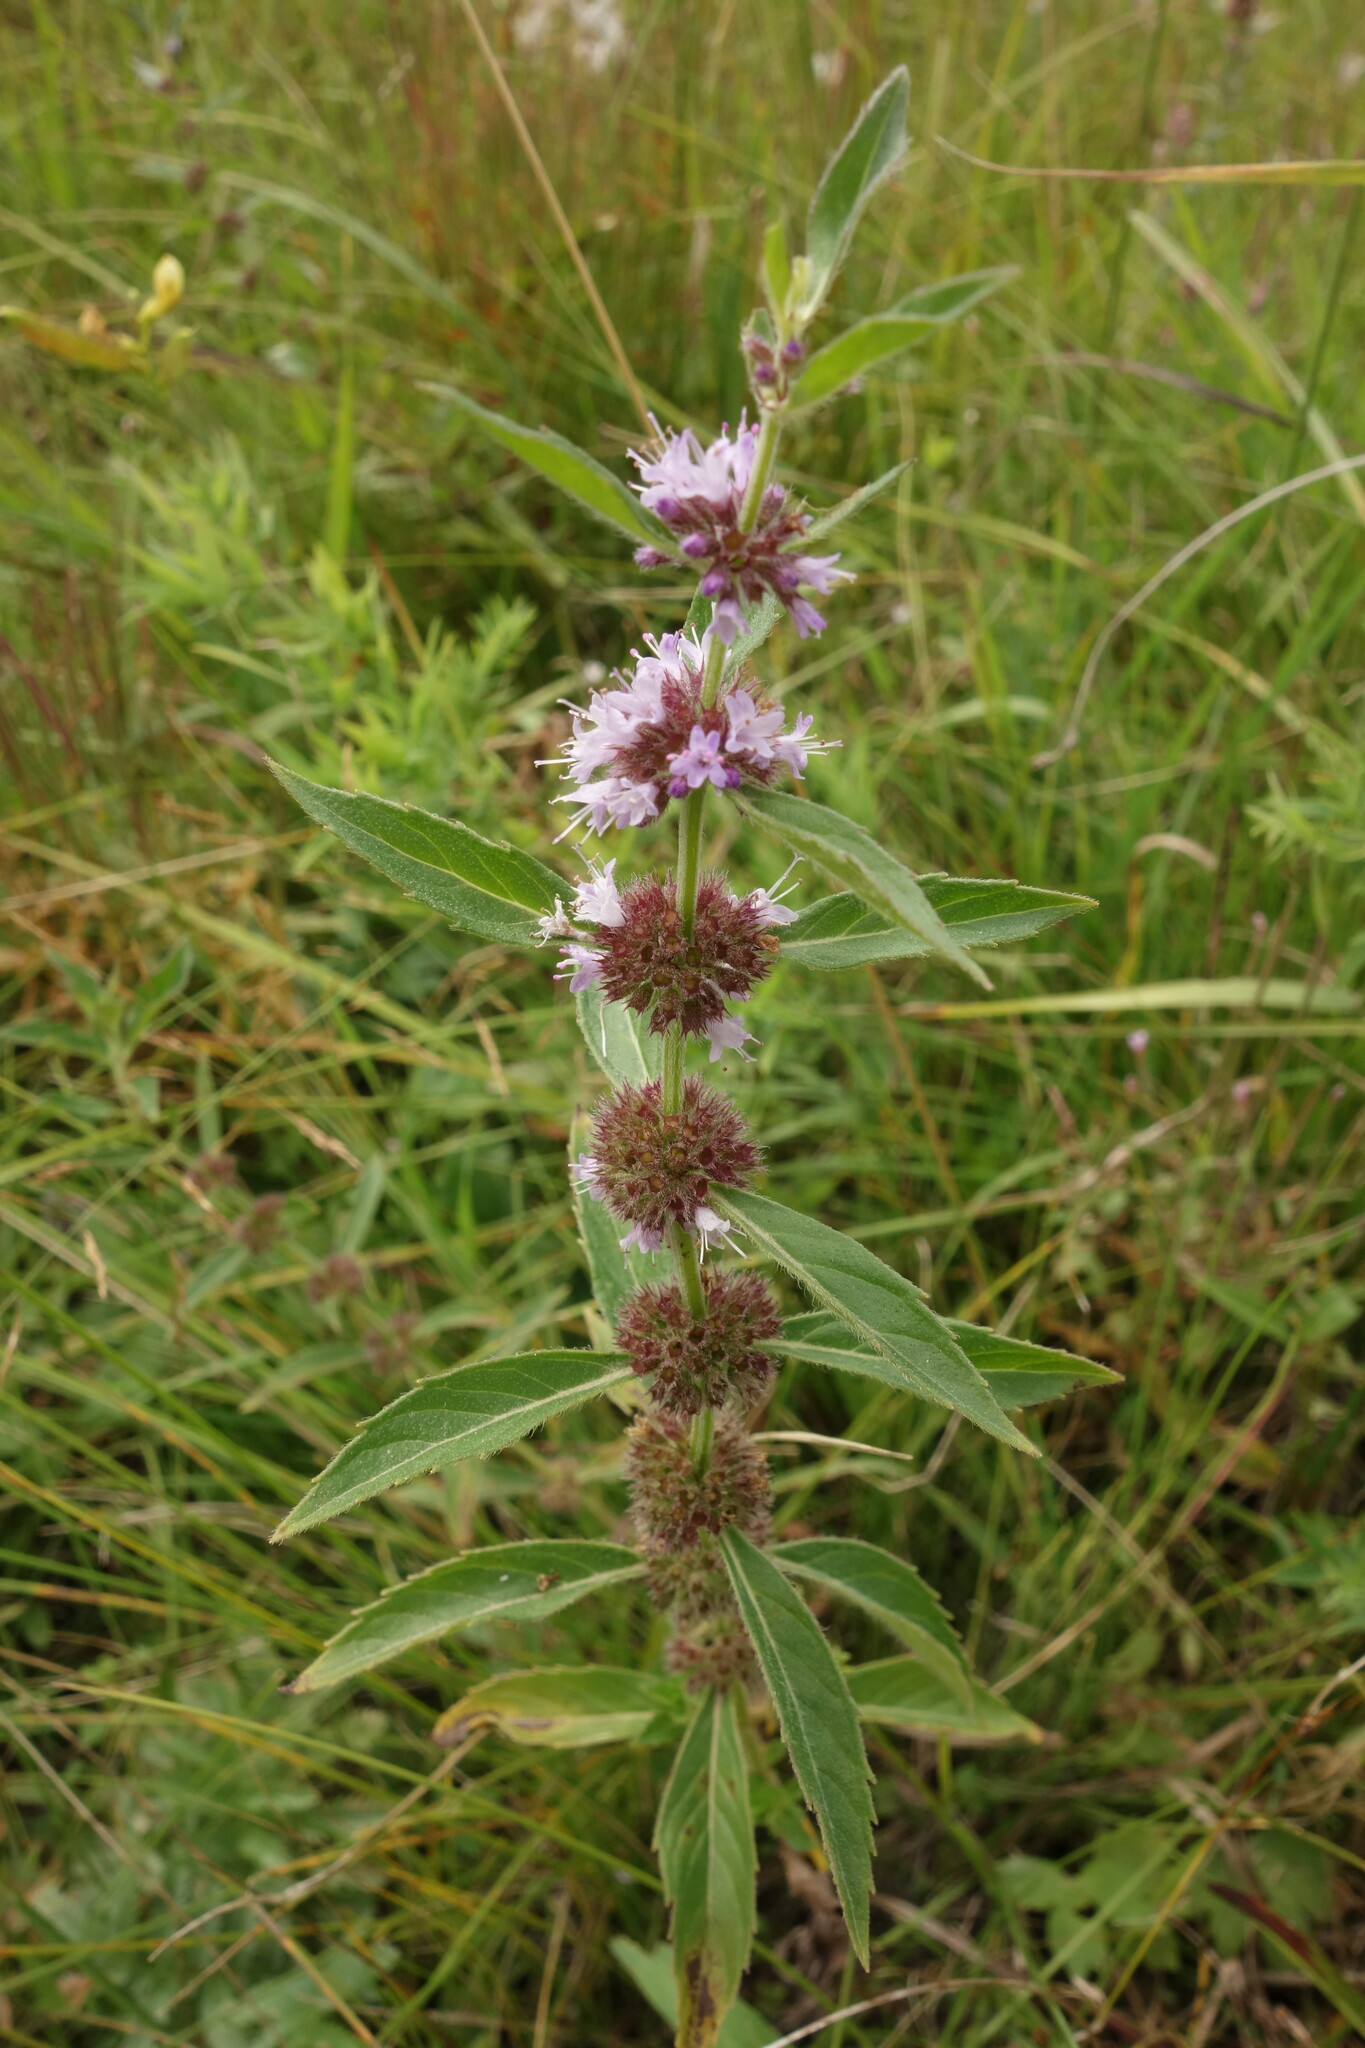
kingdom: Plantae
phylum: Tracheophyta
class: Magnoliopsida
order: Lamiales
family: Lamiaceae
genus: Mentha
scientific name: Mentha canadensis
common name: American corn mint
